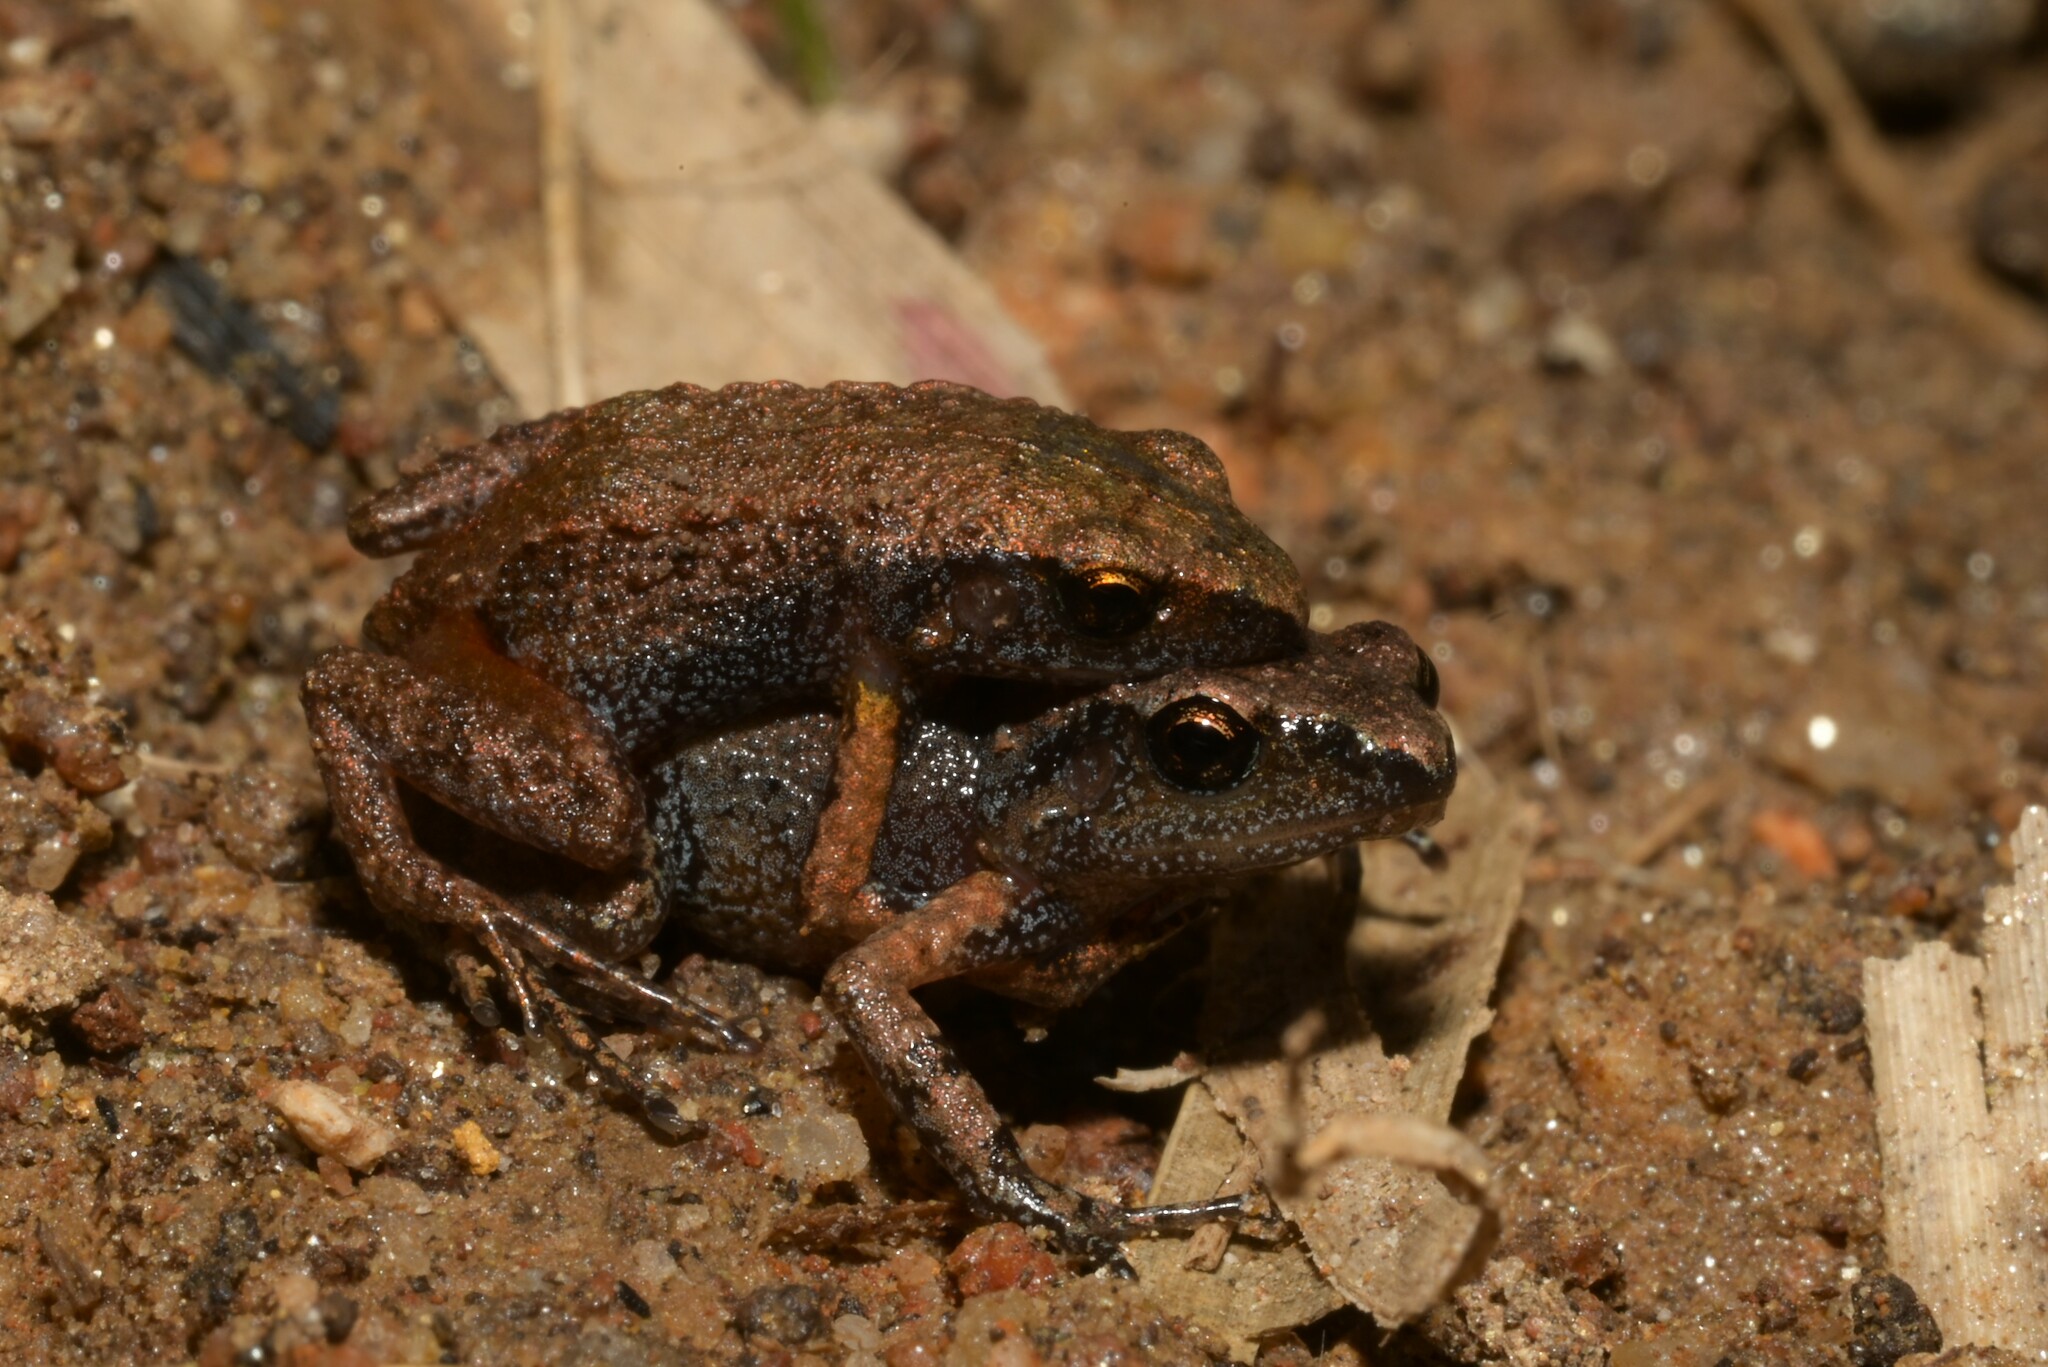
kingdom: Animalia
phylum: Chordata
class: Amphibia
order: Anura
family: Arthroleptidae
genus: Arthroleptis
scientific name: Arthroleptis xenodactyloides
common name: Chirinda screeching frog
